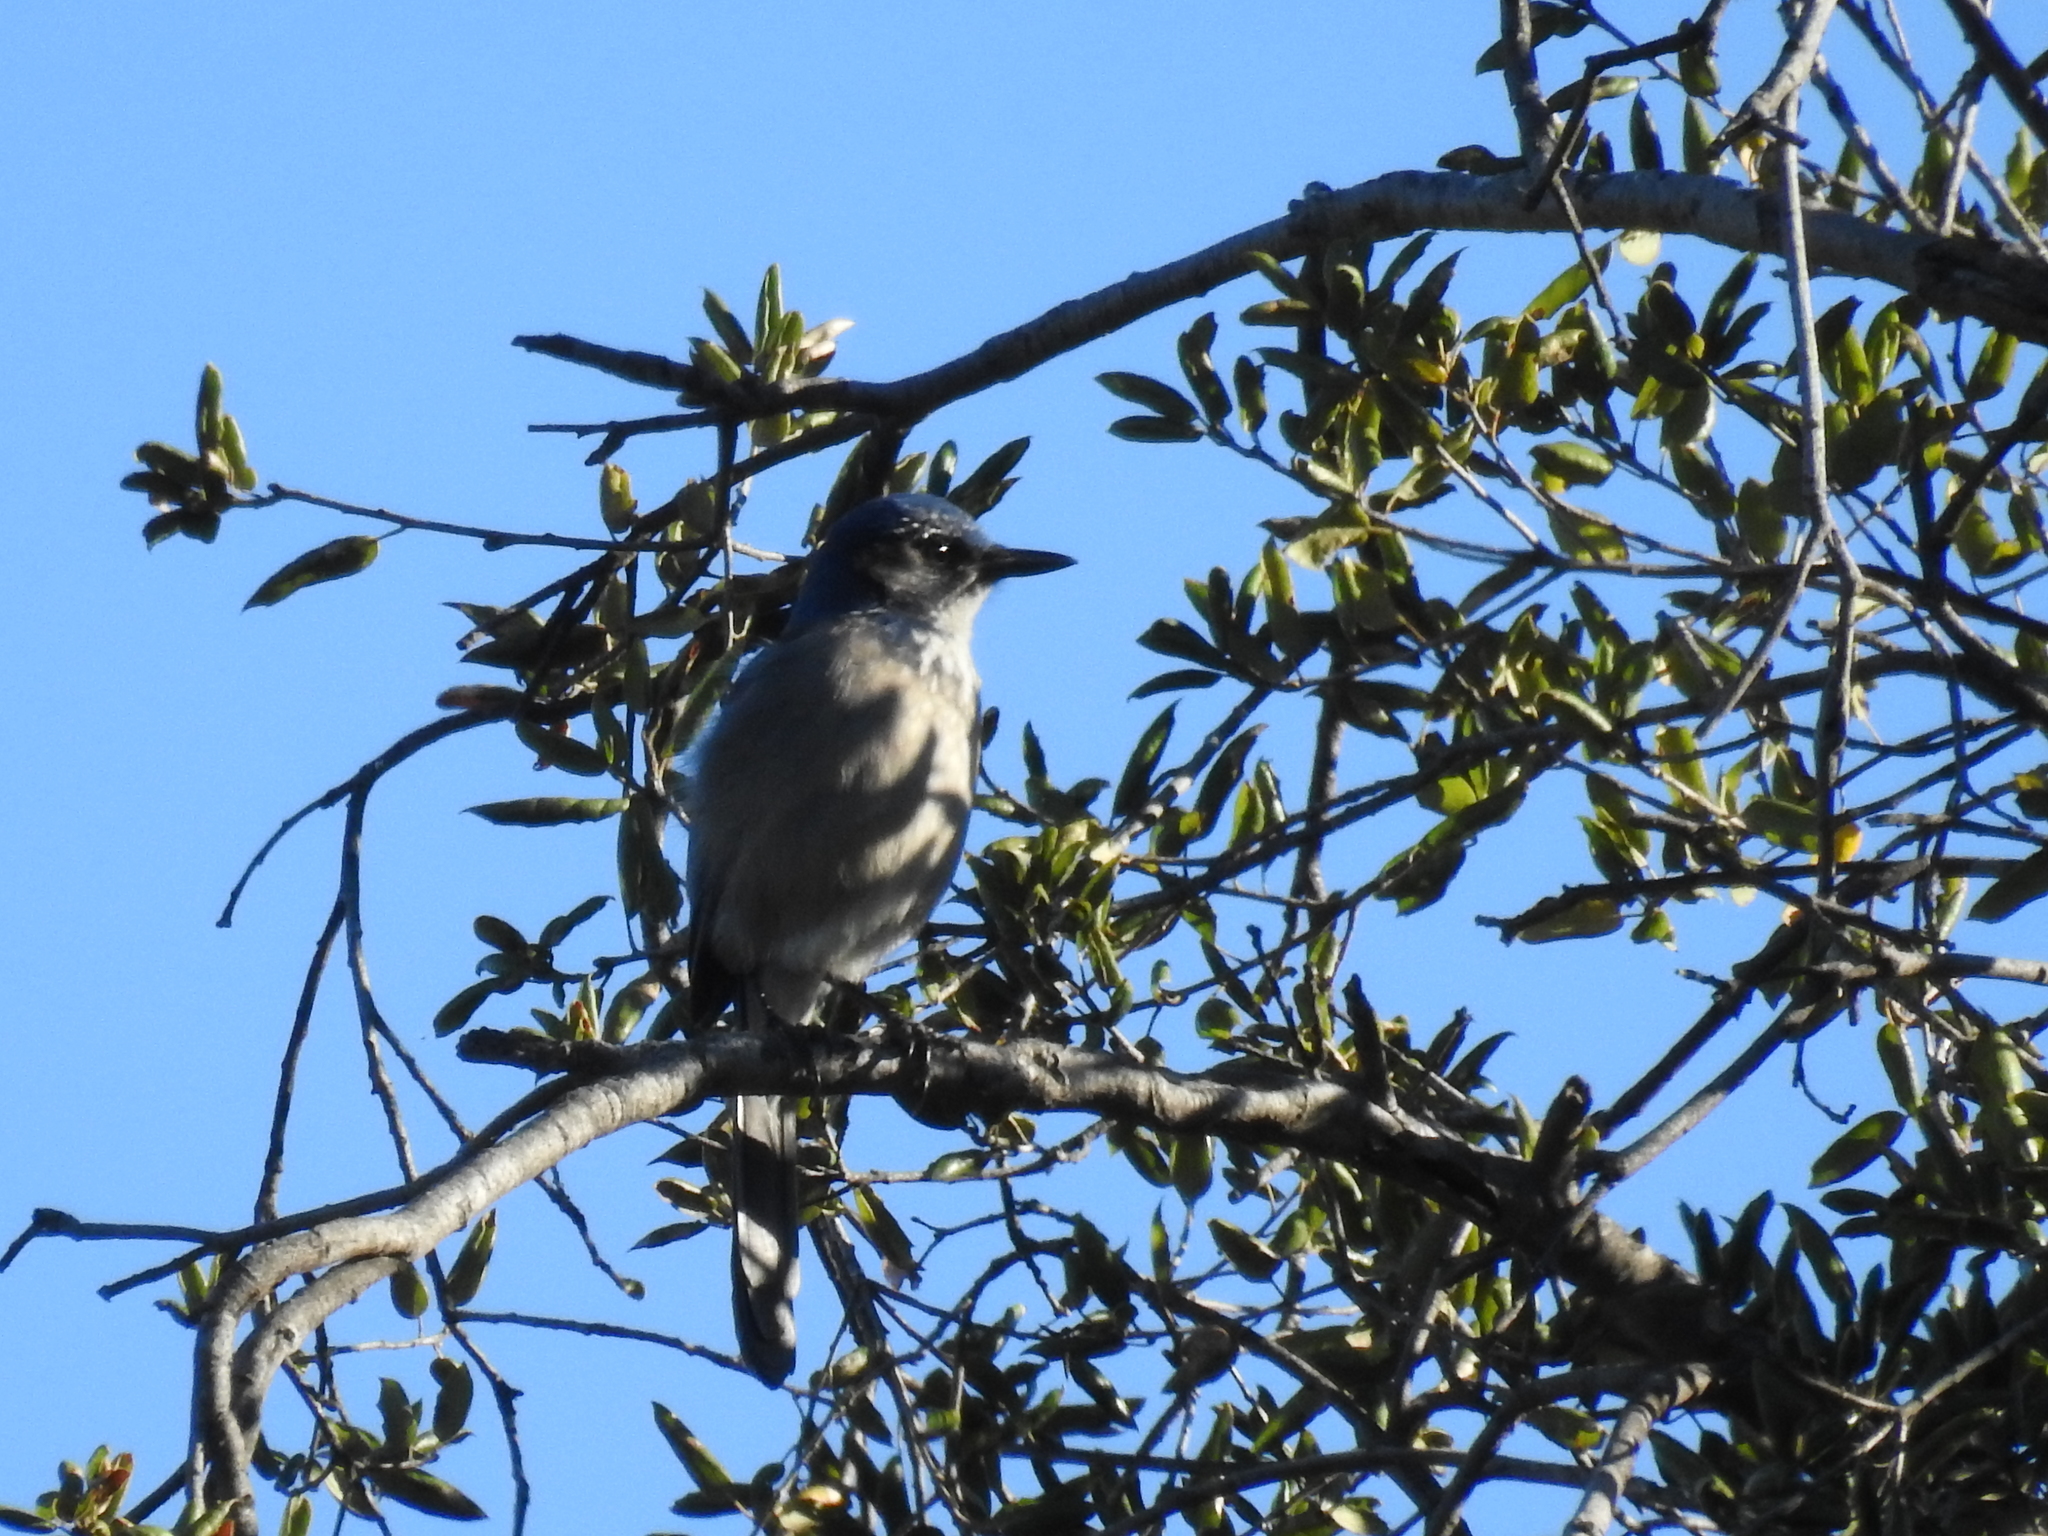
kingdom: Animalia
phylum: Chordata
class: Aves
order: Passeriformes
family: Corvidae
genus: Aphelocoma
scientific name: Aphelocoma californica
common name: California scrub-jay
